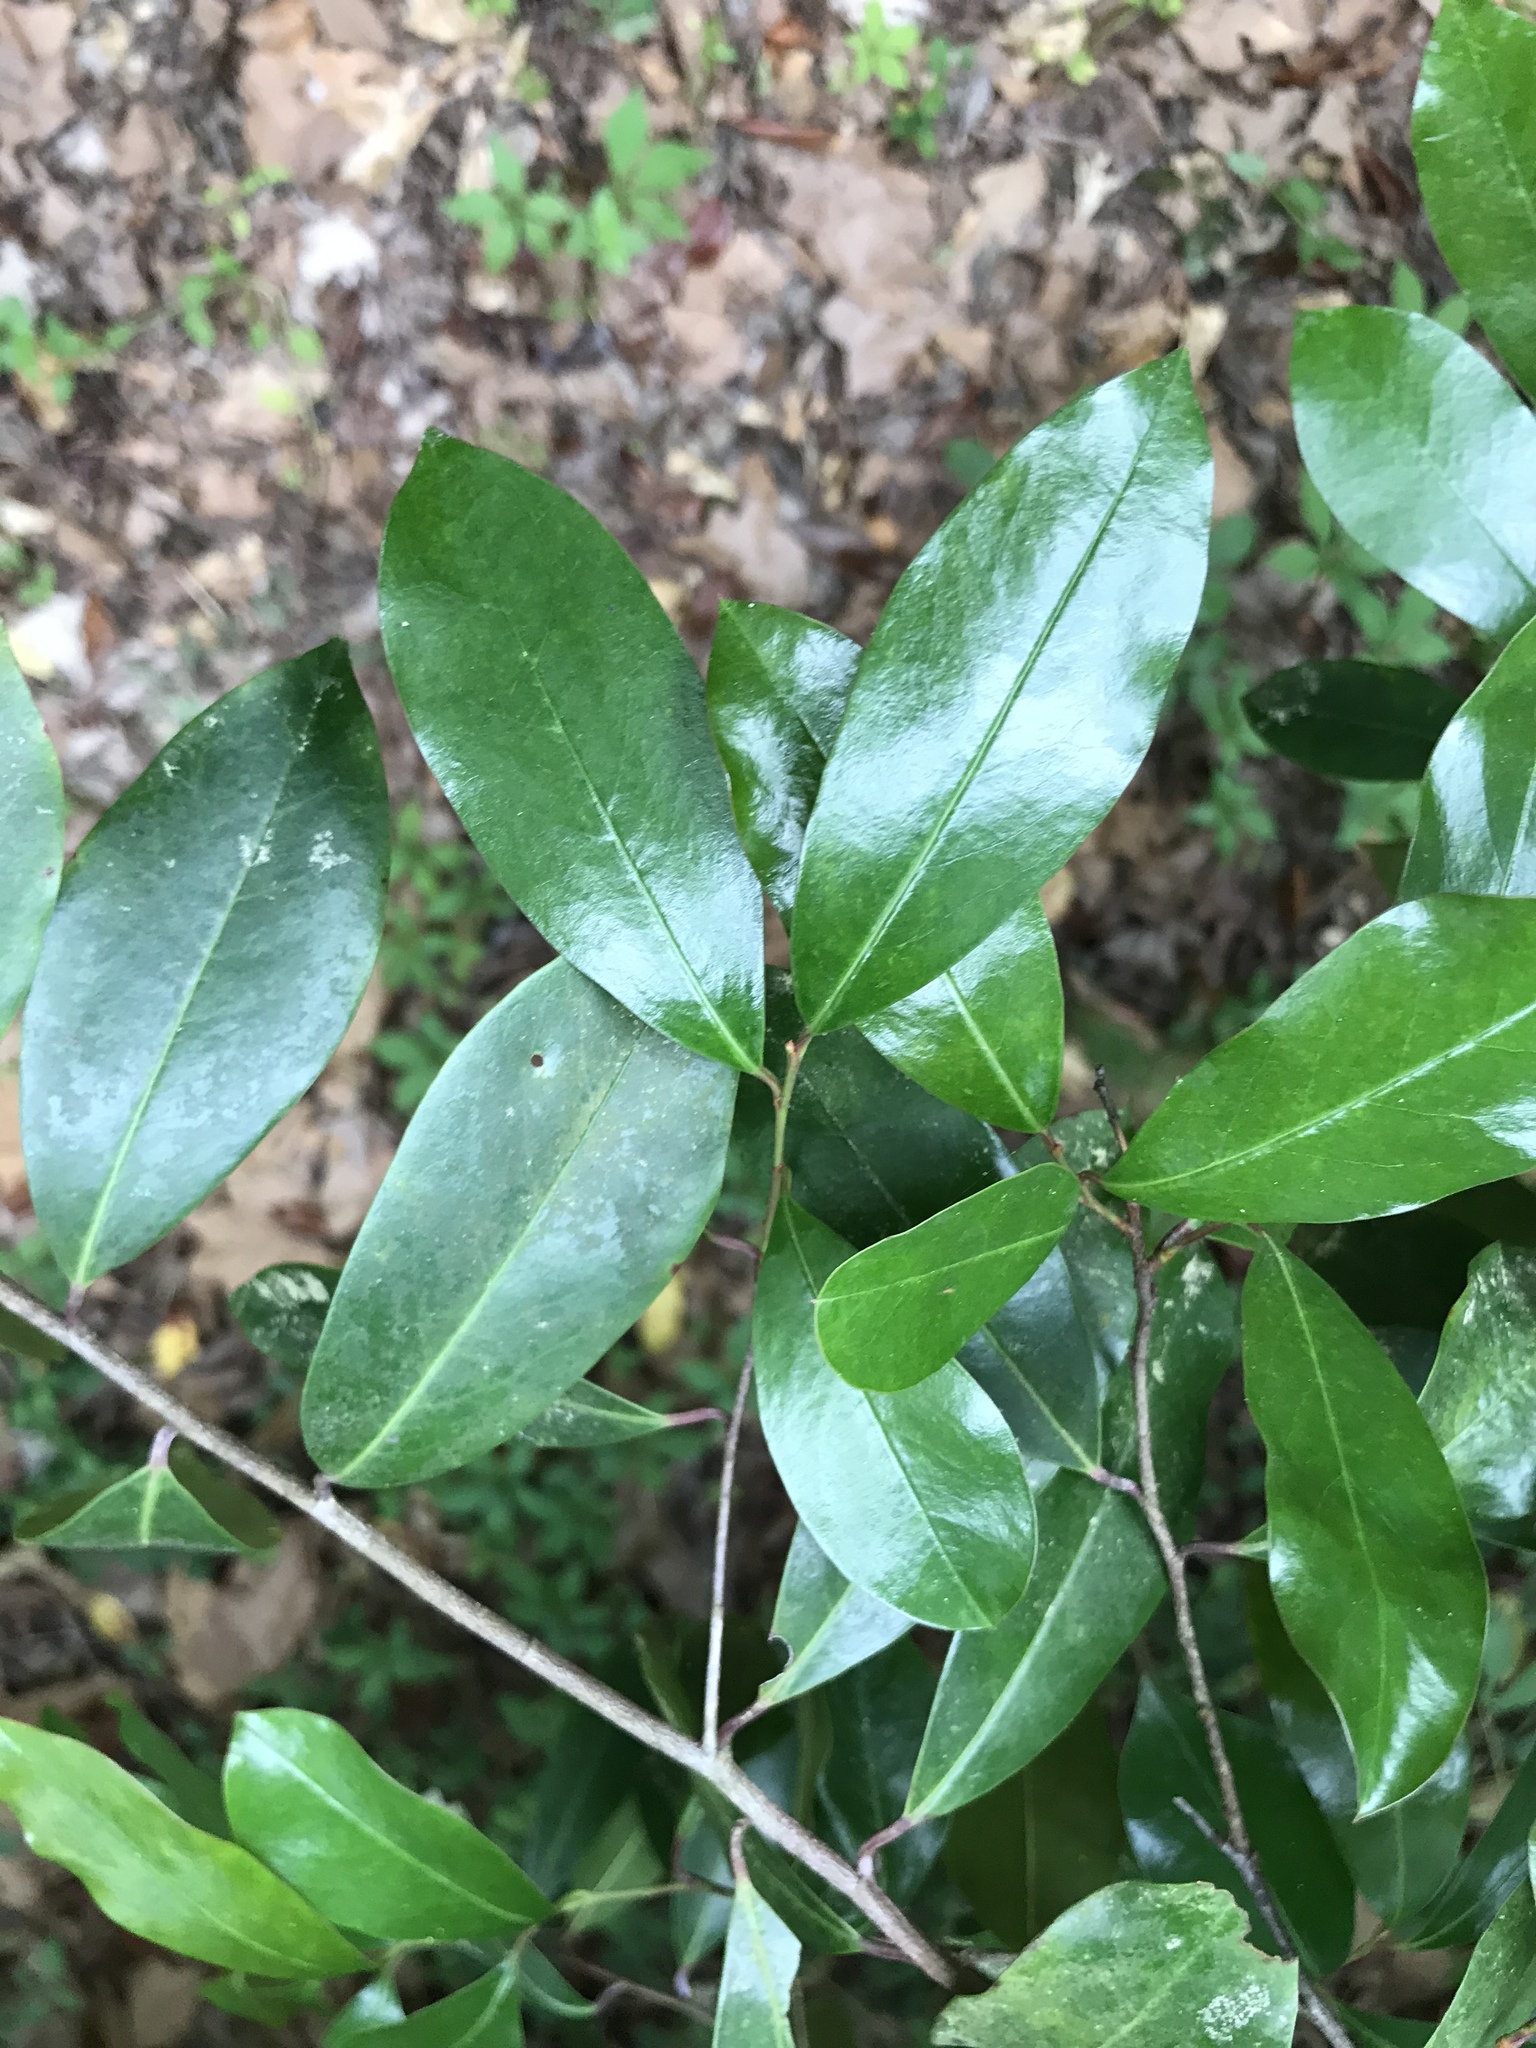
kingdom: Plantae
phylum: Tracheophyta
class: Magnoliopsida
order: Rosales
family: Rosaceae
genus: Prunus
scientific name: Prunus caroliniana
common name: Carolina laurel cherry
